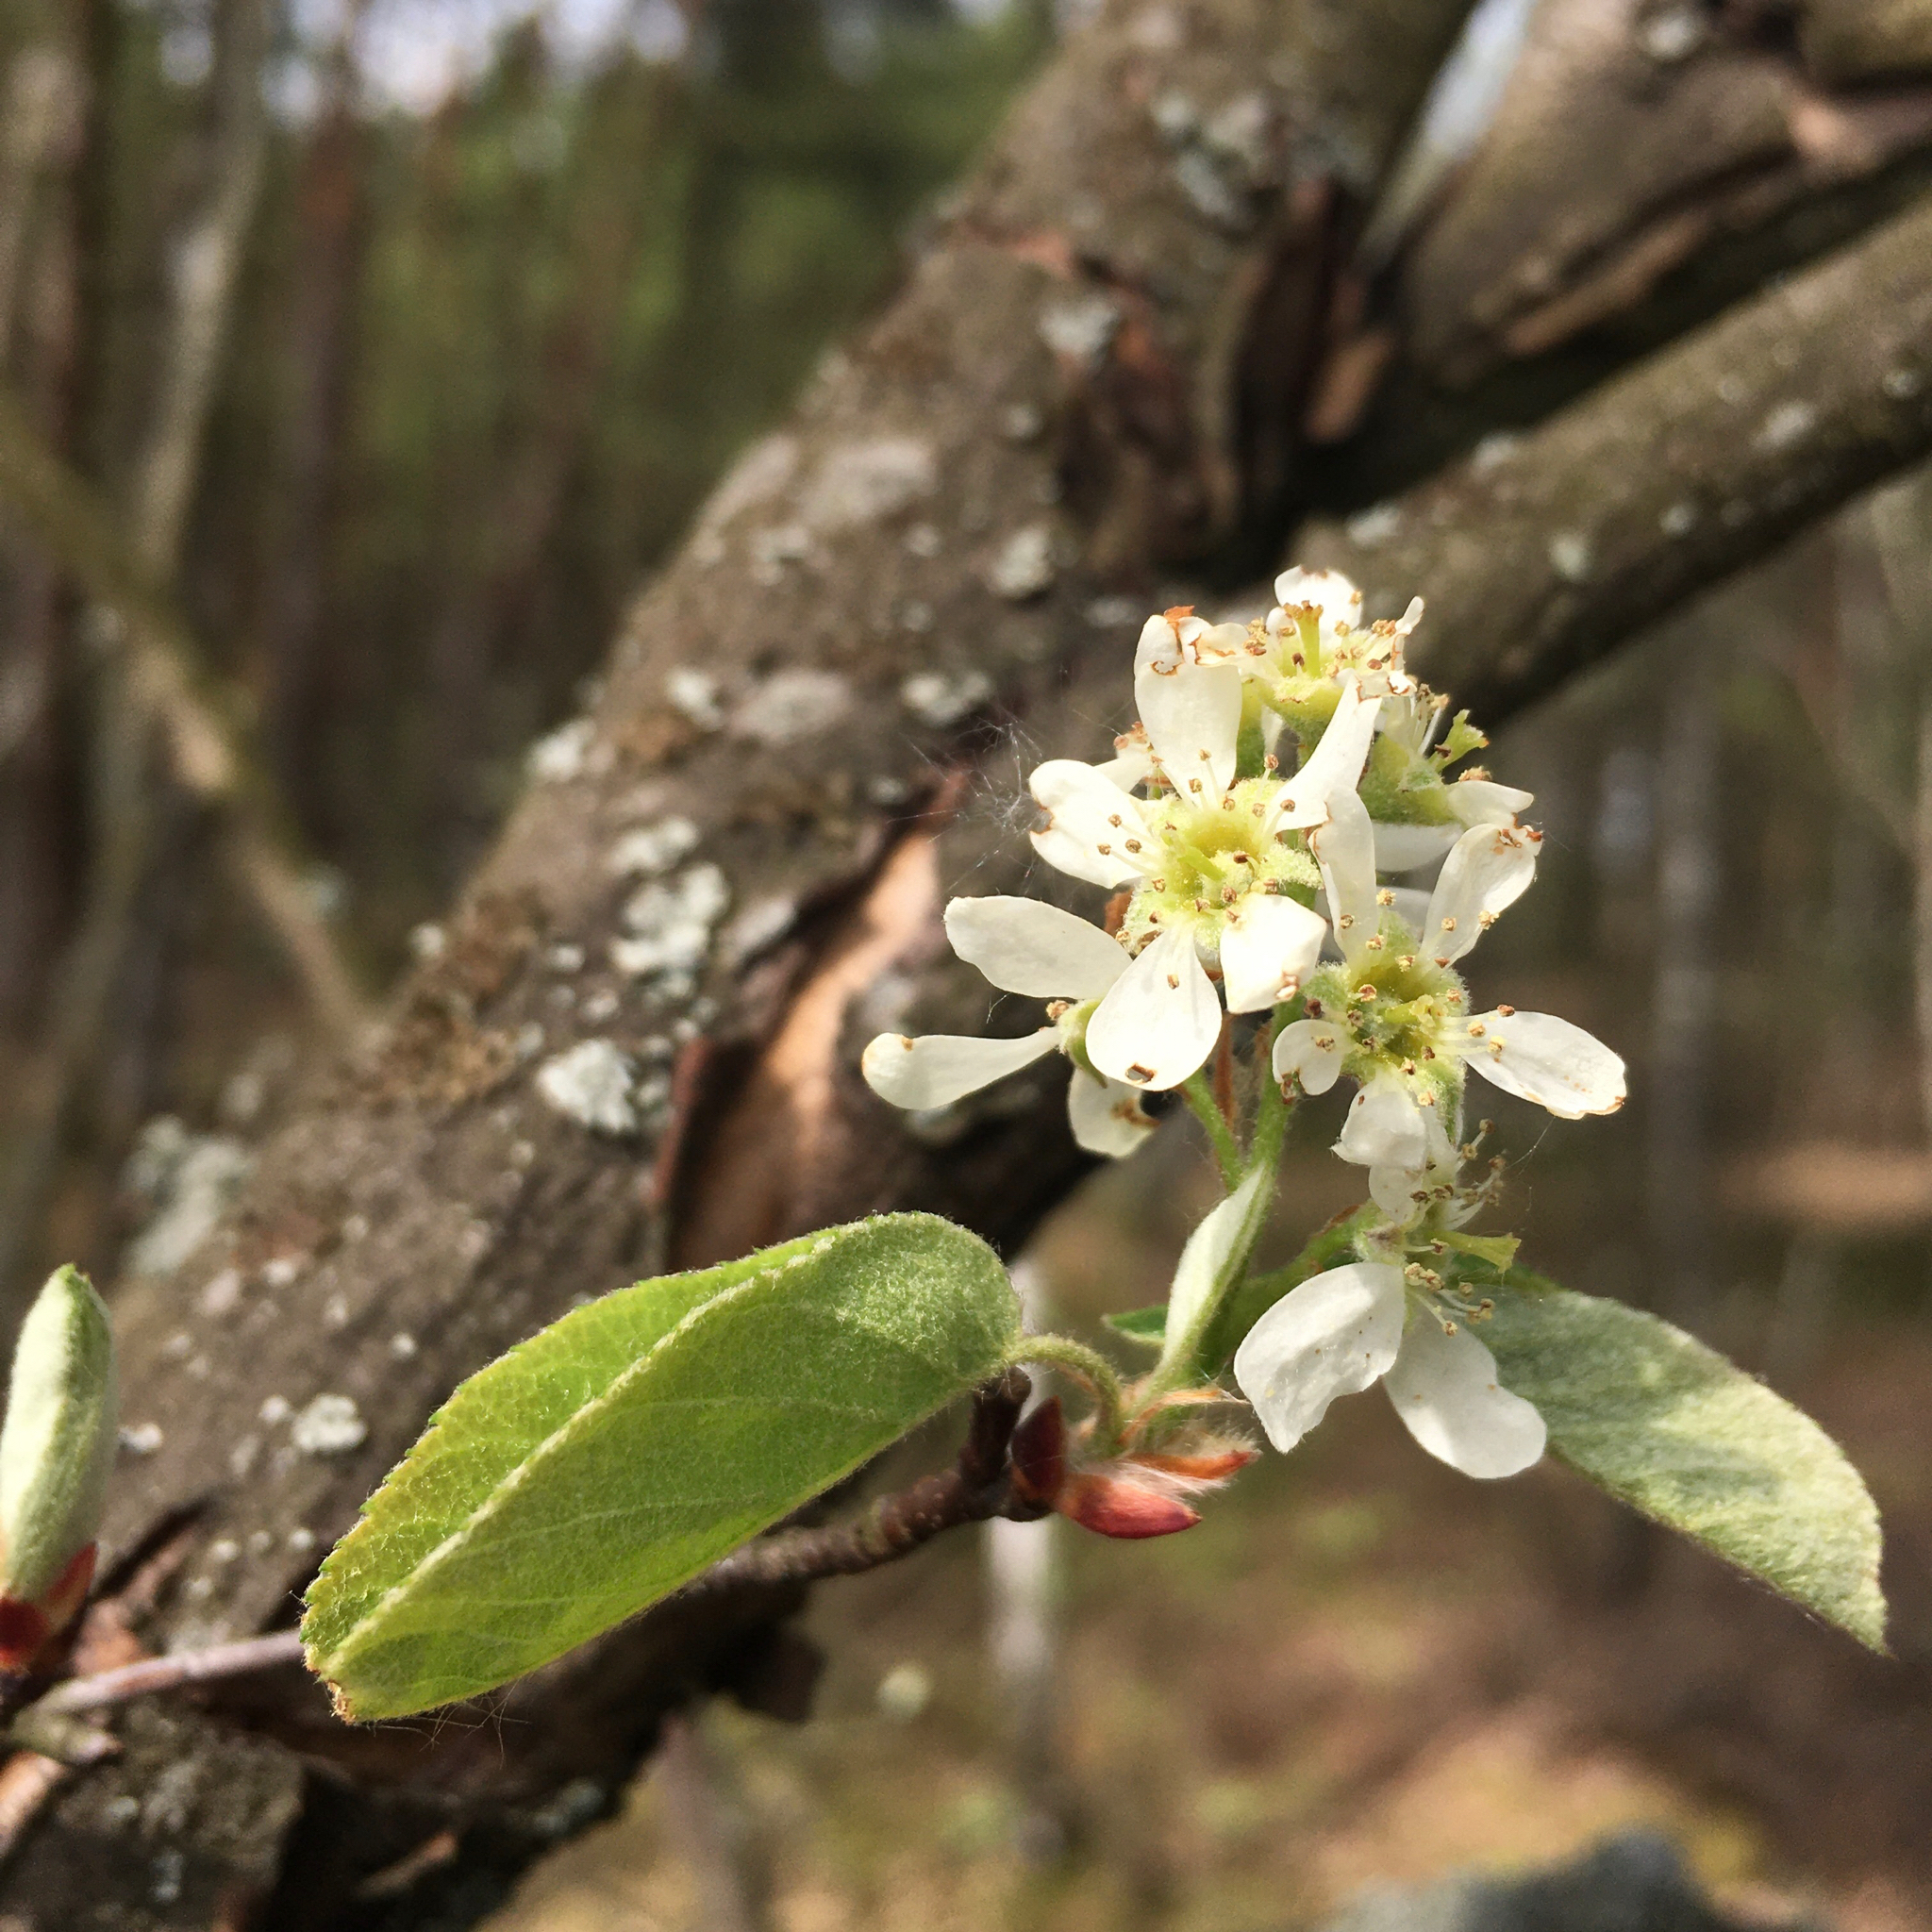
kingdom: Plantae
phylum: Tracheophyta
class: Magnoliopsida
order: Rosales
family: Rosaceae
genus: Amelanchier
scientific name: Amelanchier
